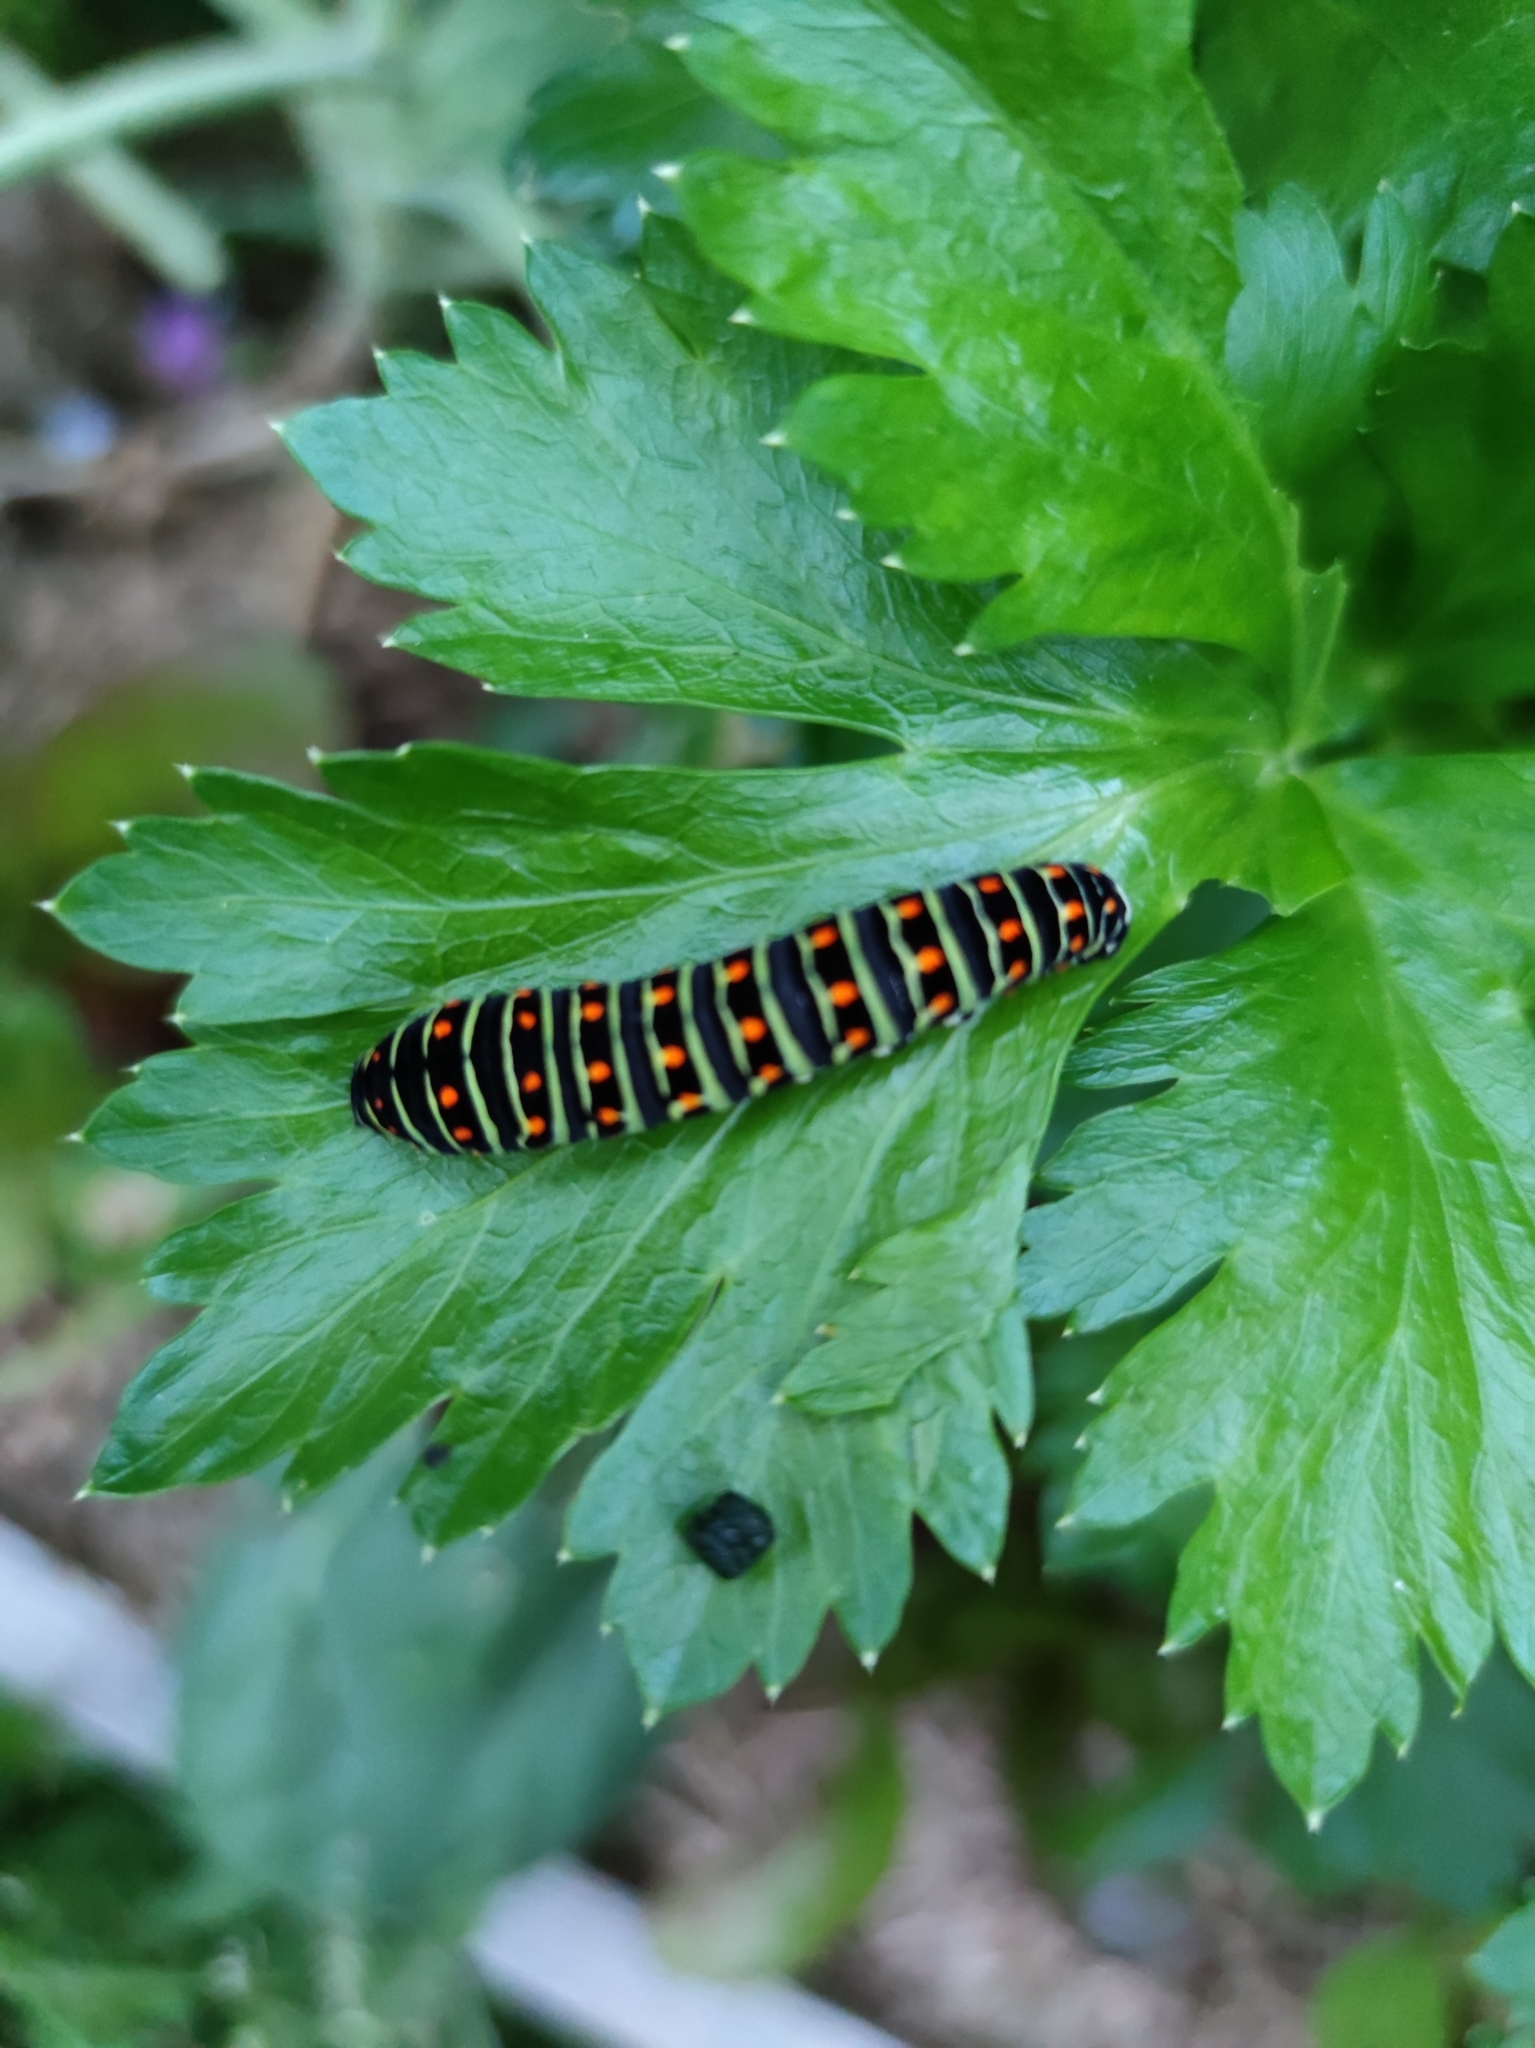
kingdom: Animalia
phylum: Arthropoda
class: Insecta
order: Lepidoptera
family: Papilionidae
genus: Papilio
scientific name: Papilio machaon
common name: Swallowtail
